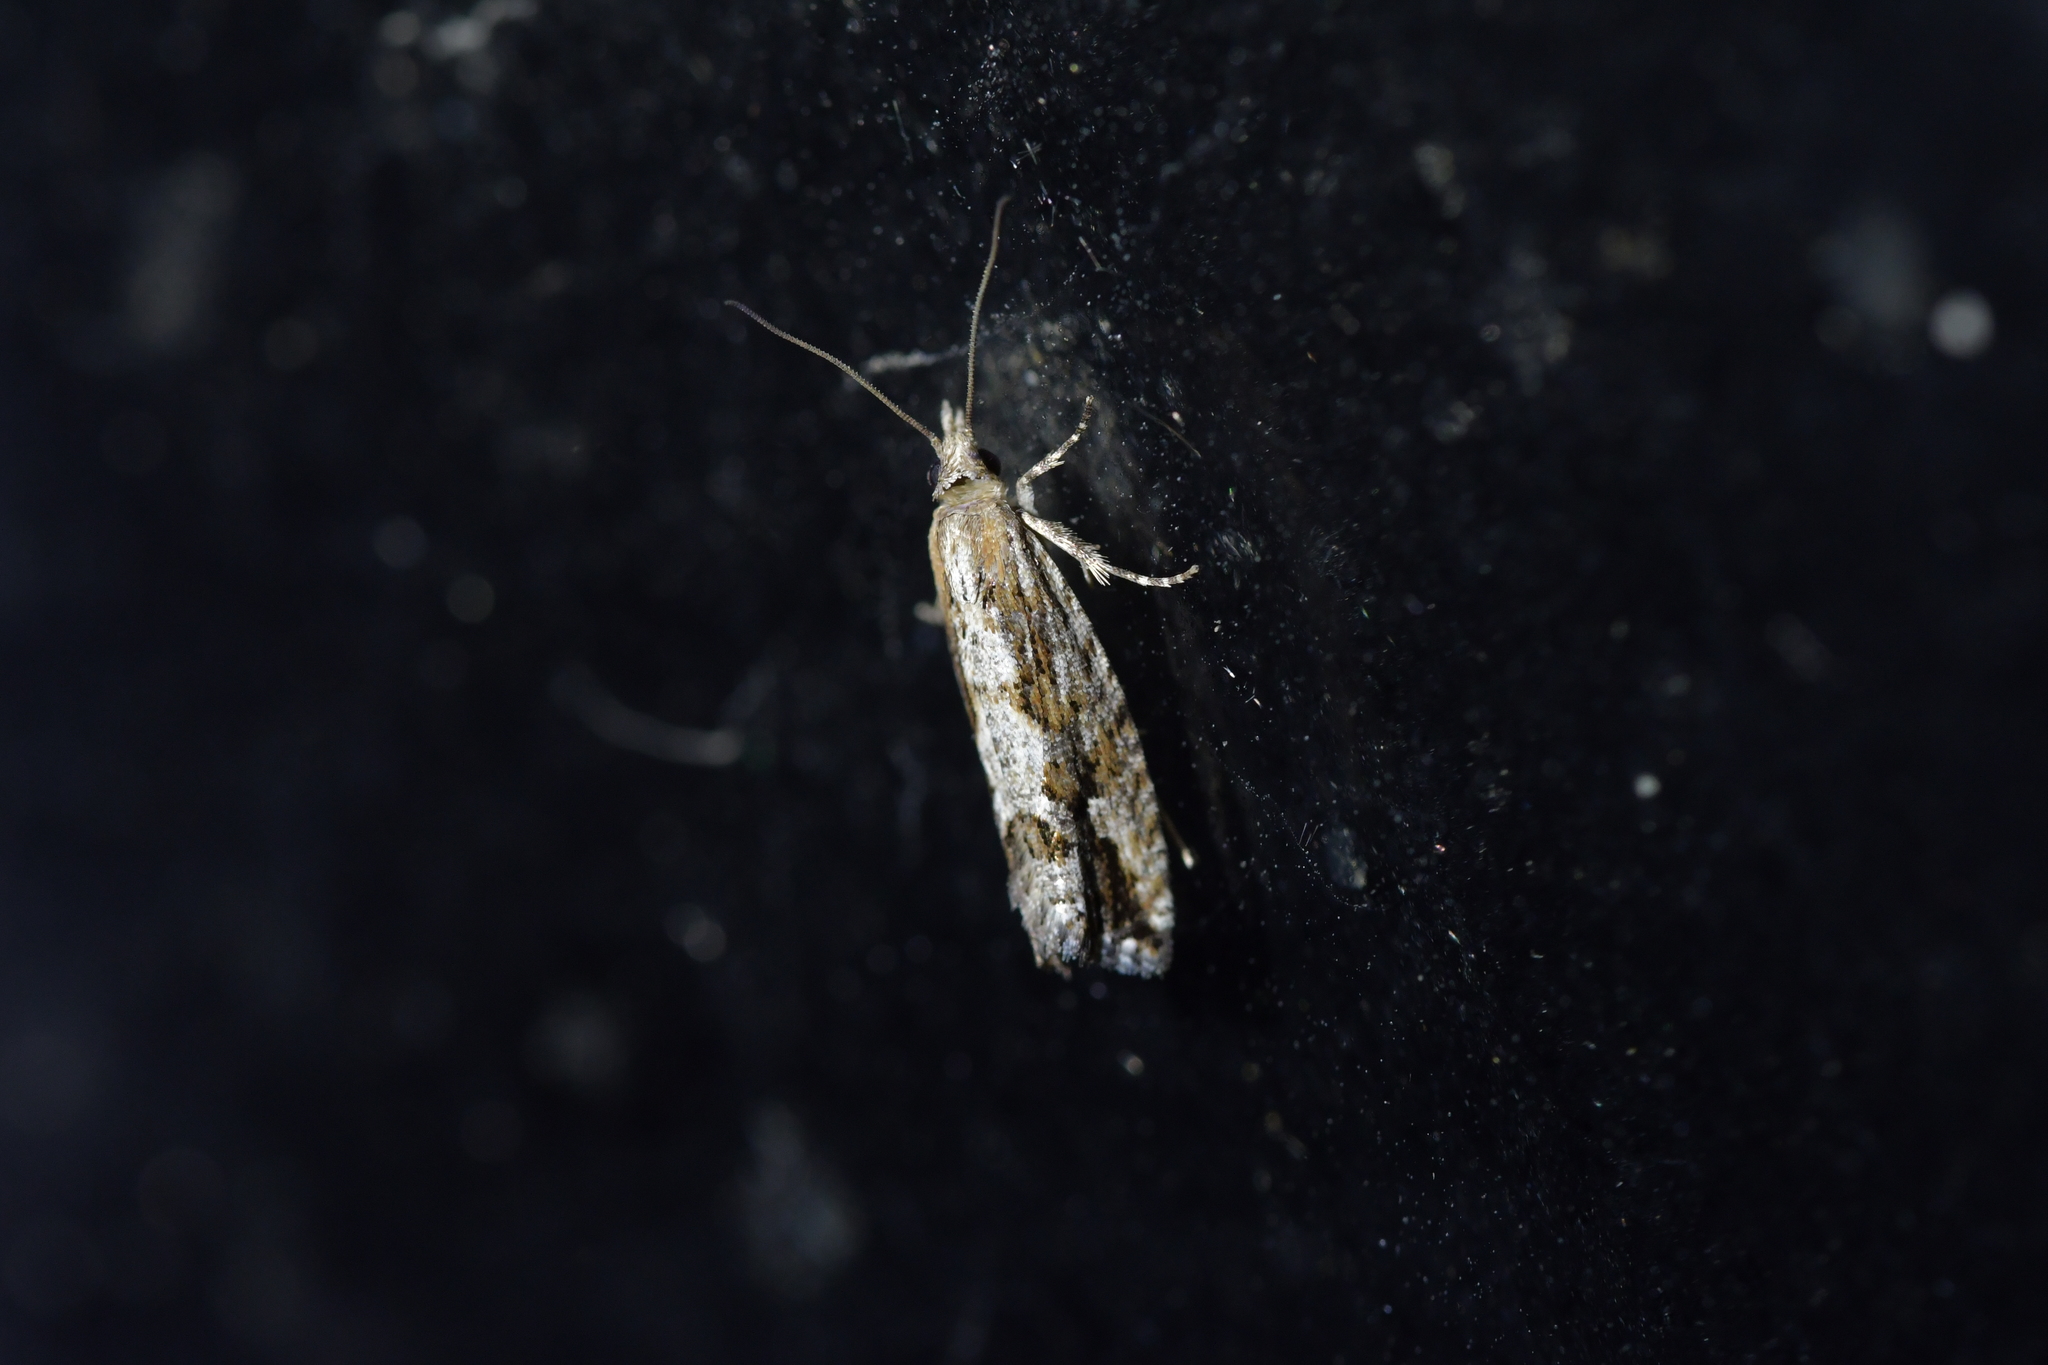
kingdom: Animalia
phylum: Arthropoda
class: Insecta
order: Lepidoptera
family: Tortricidae
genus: Strepsicrates
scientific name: Strepsicrates ejectana
